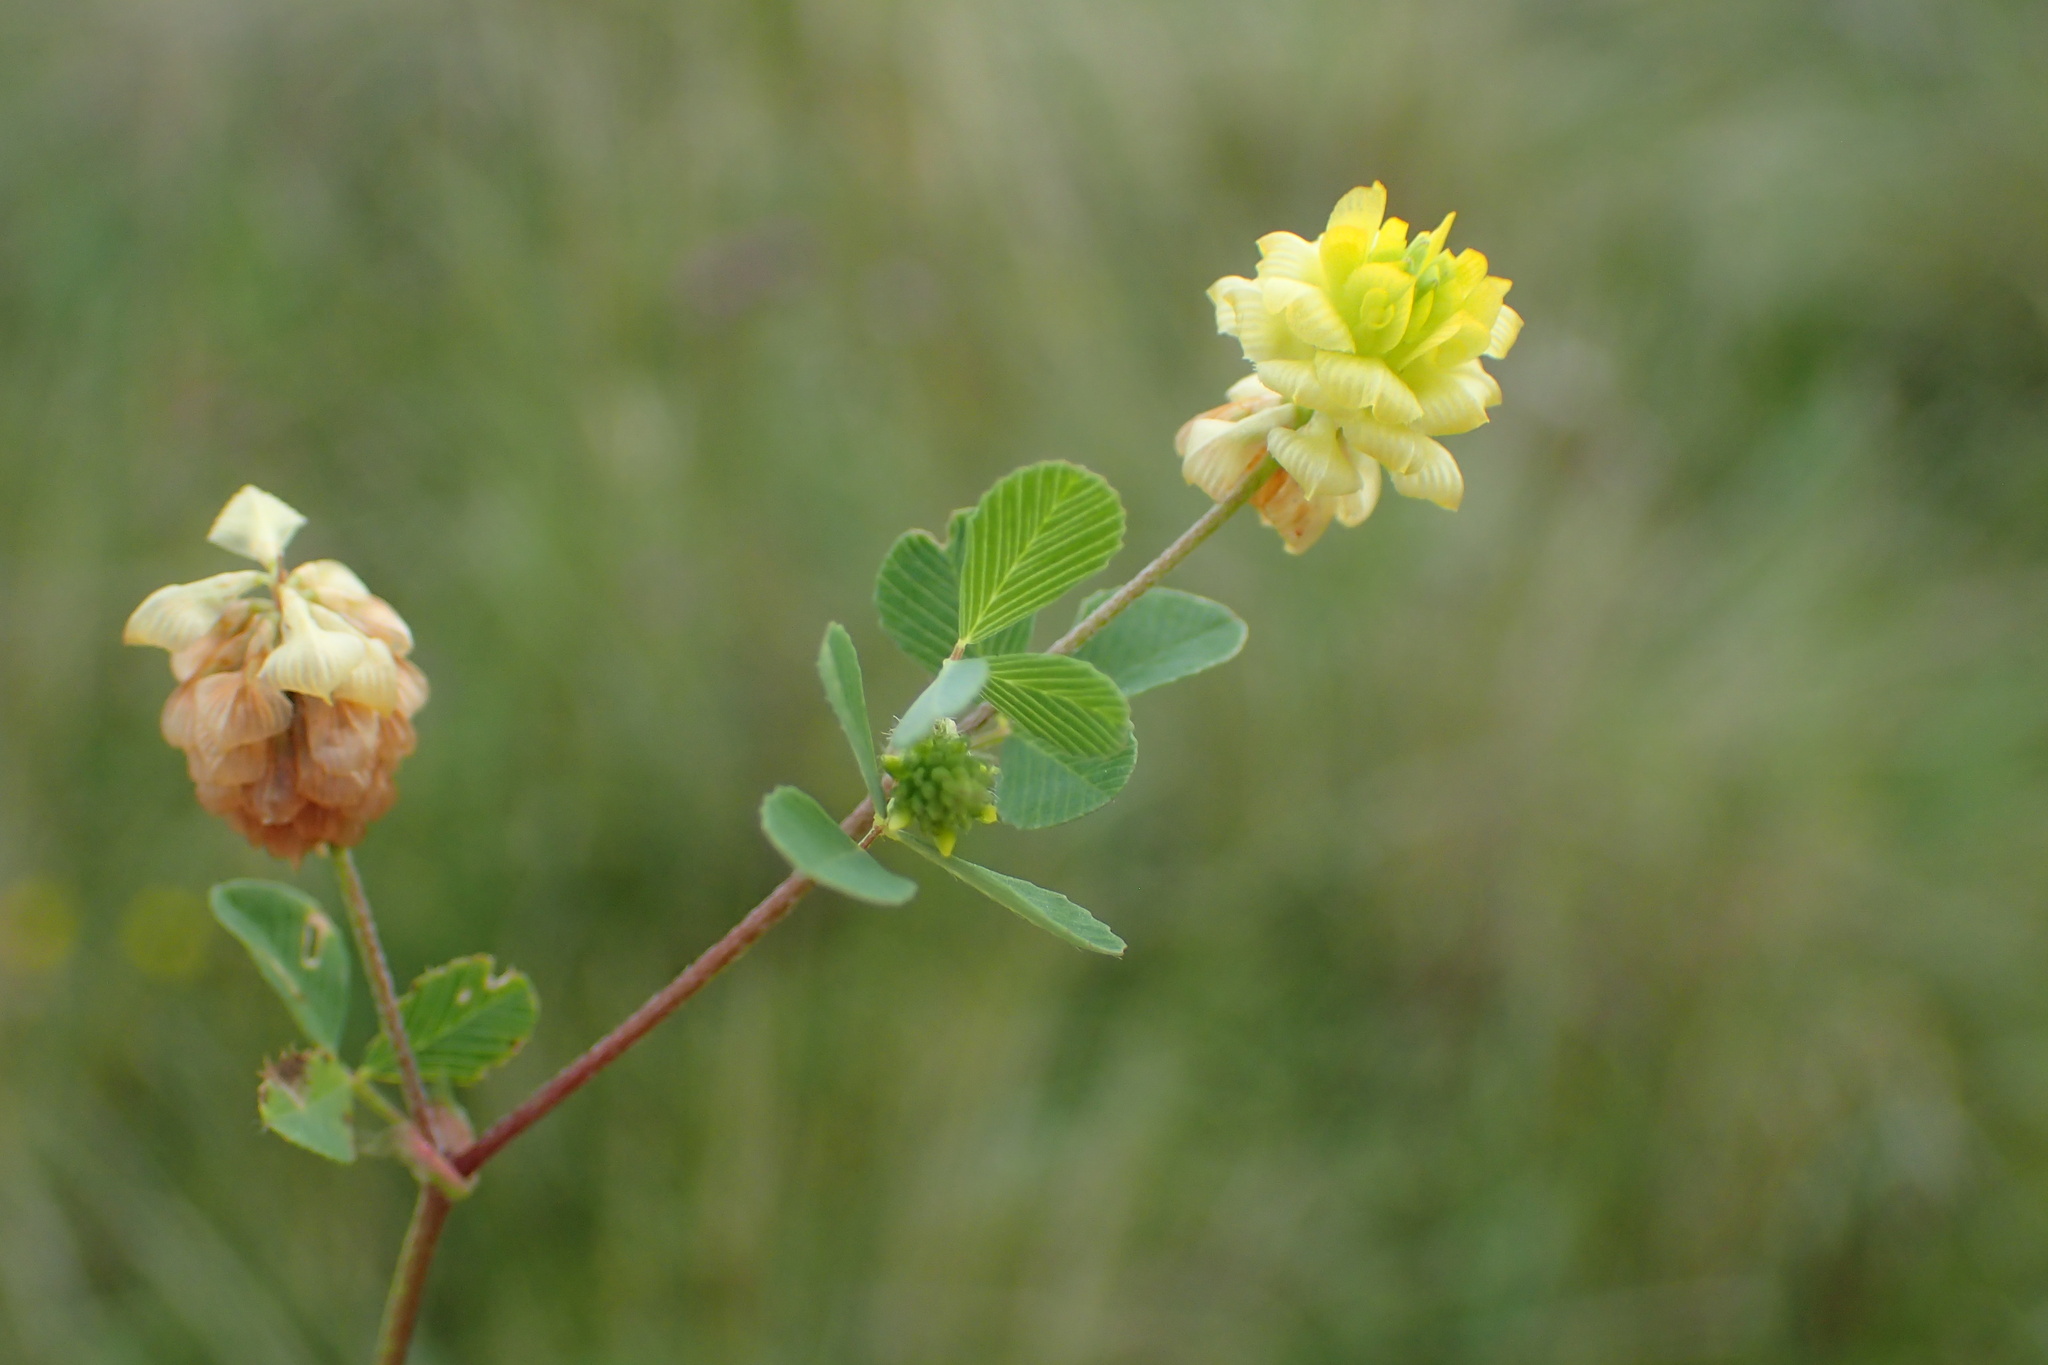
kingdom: Plantae
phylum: Tracheophyta
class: Magnoliopsida
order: Fabales
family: Fabaceae
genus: Trifolium
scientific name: Trifolium campestre
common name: Field clover
